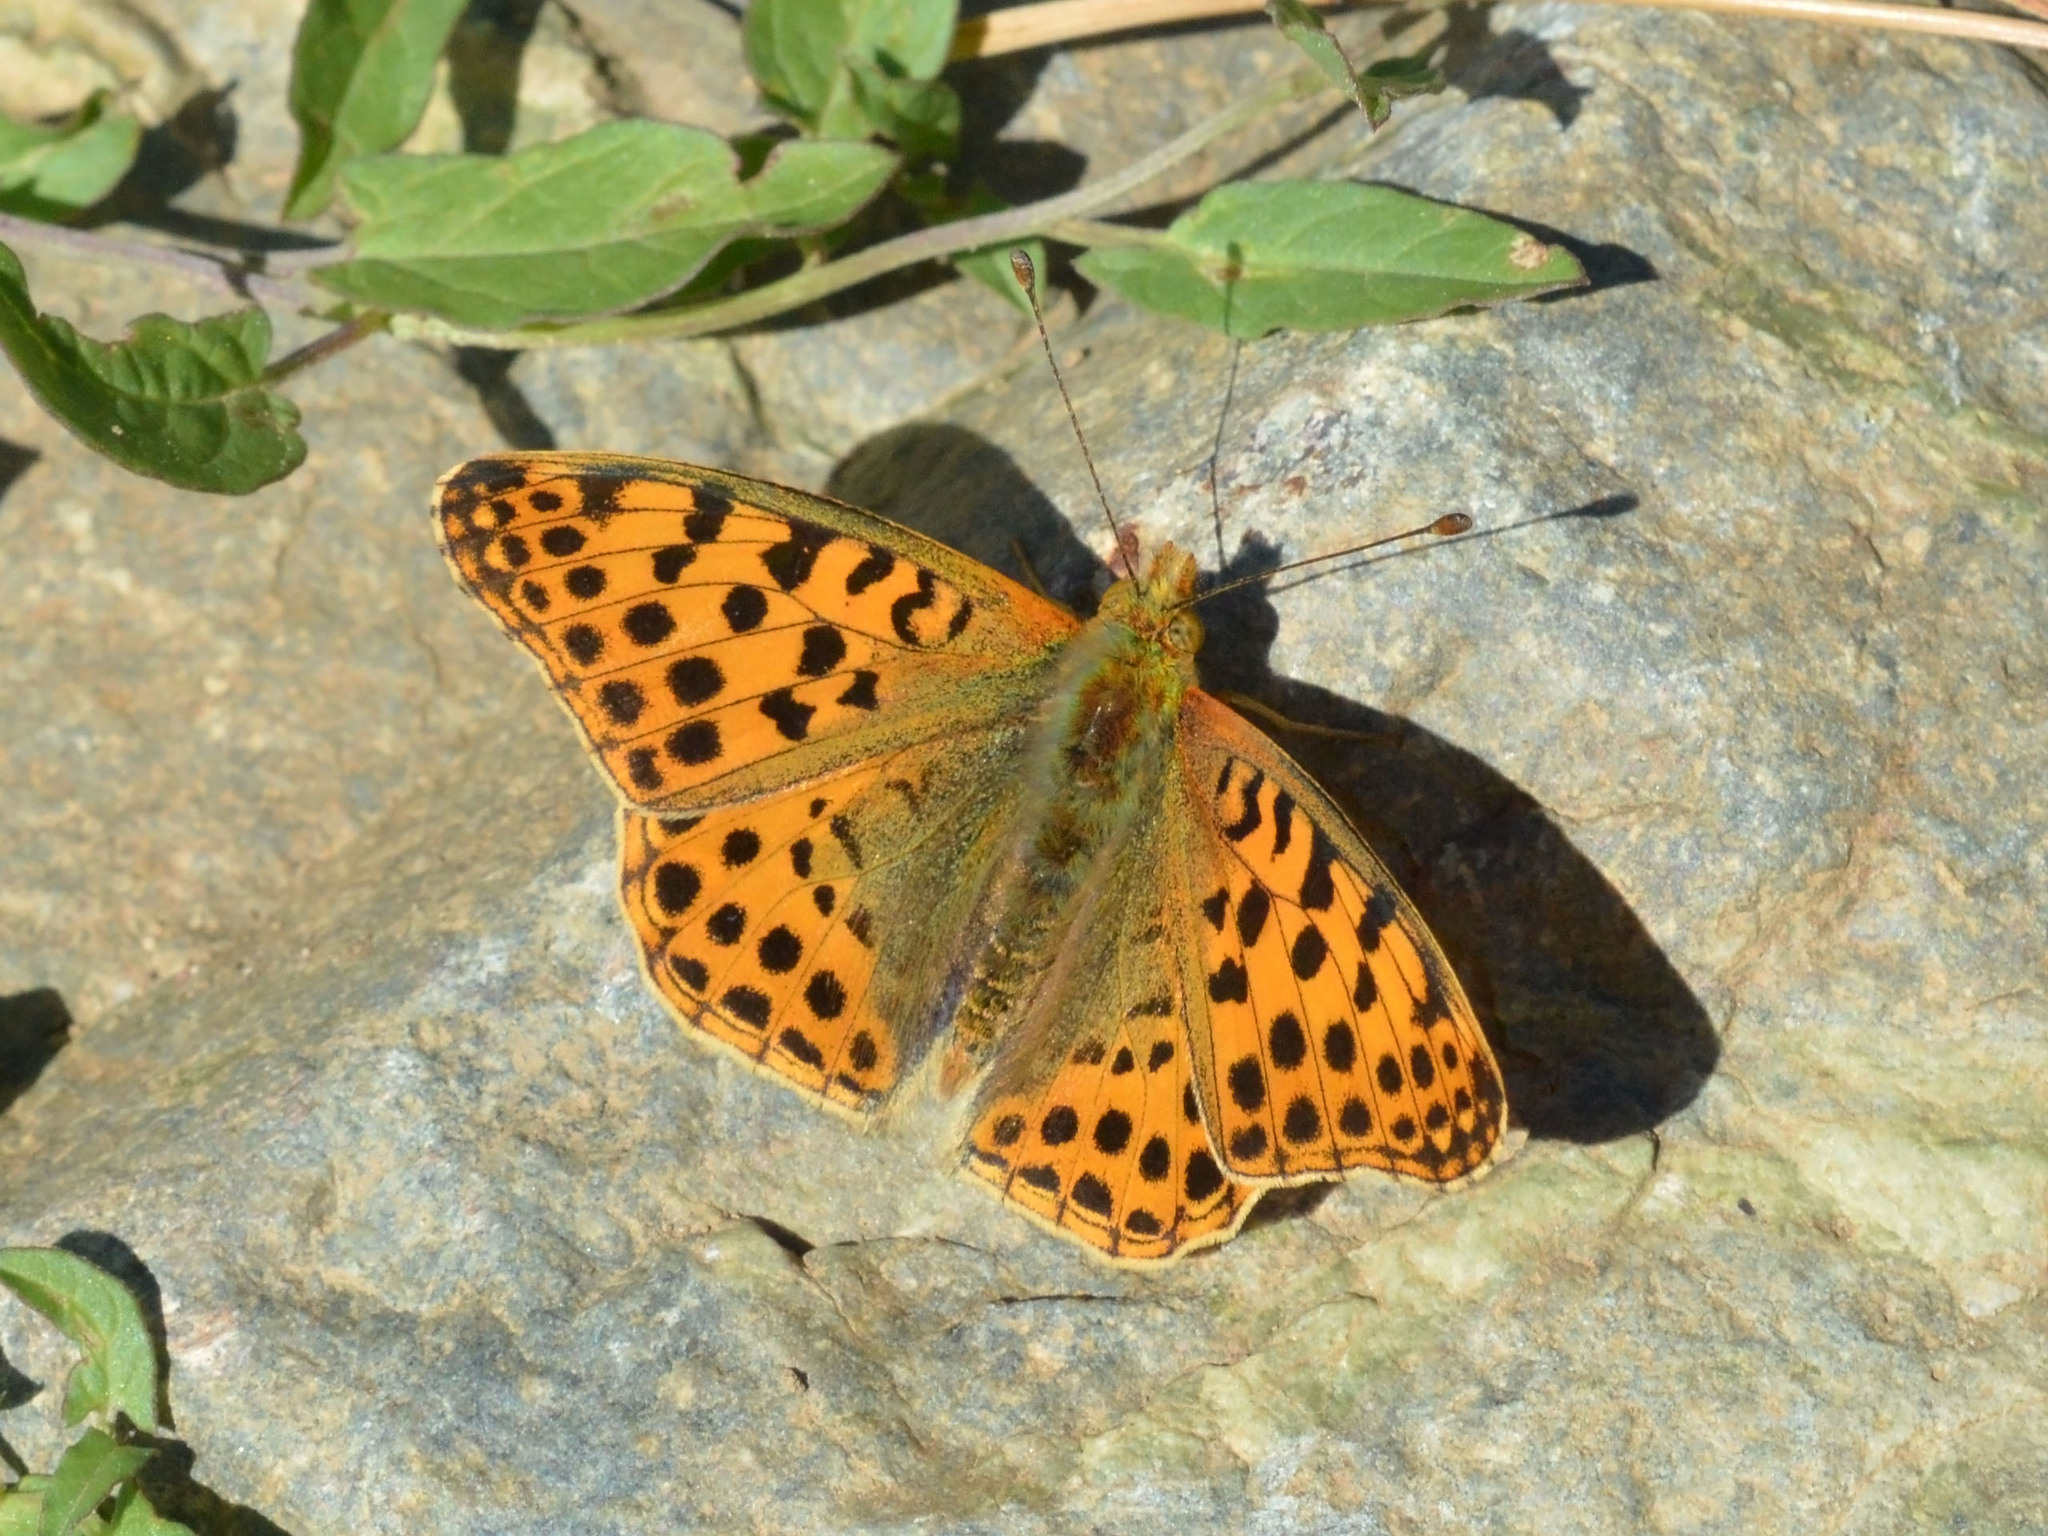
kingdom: Animalia
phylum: Arthropoda
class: Insecta
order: Lepidoptera
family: Nymphalidae
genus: Issoria
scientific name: Issoria lathonia
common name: Queen of spain fritillary
